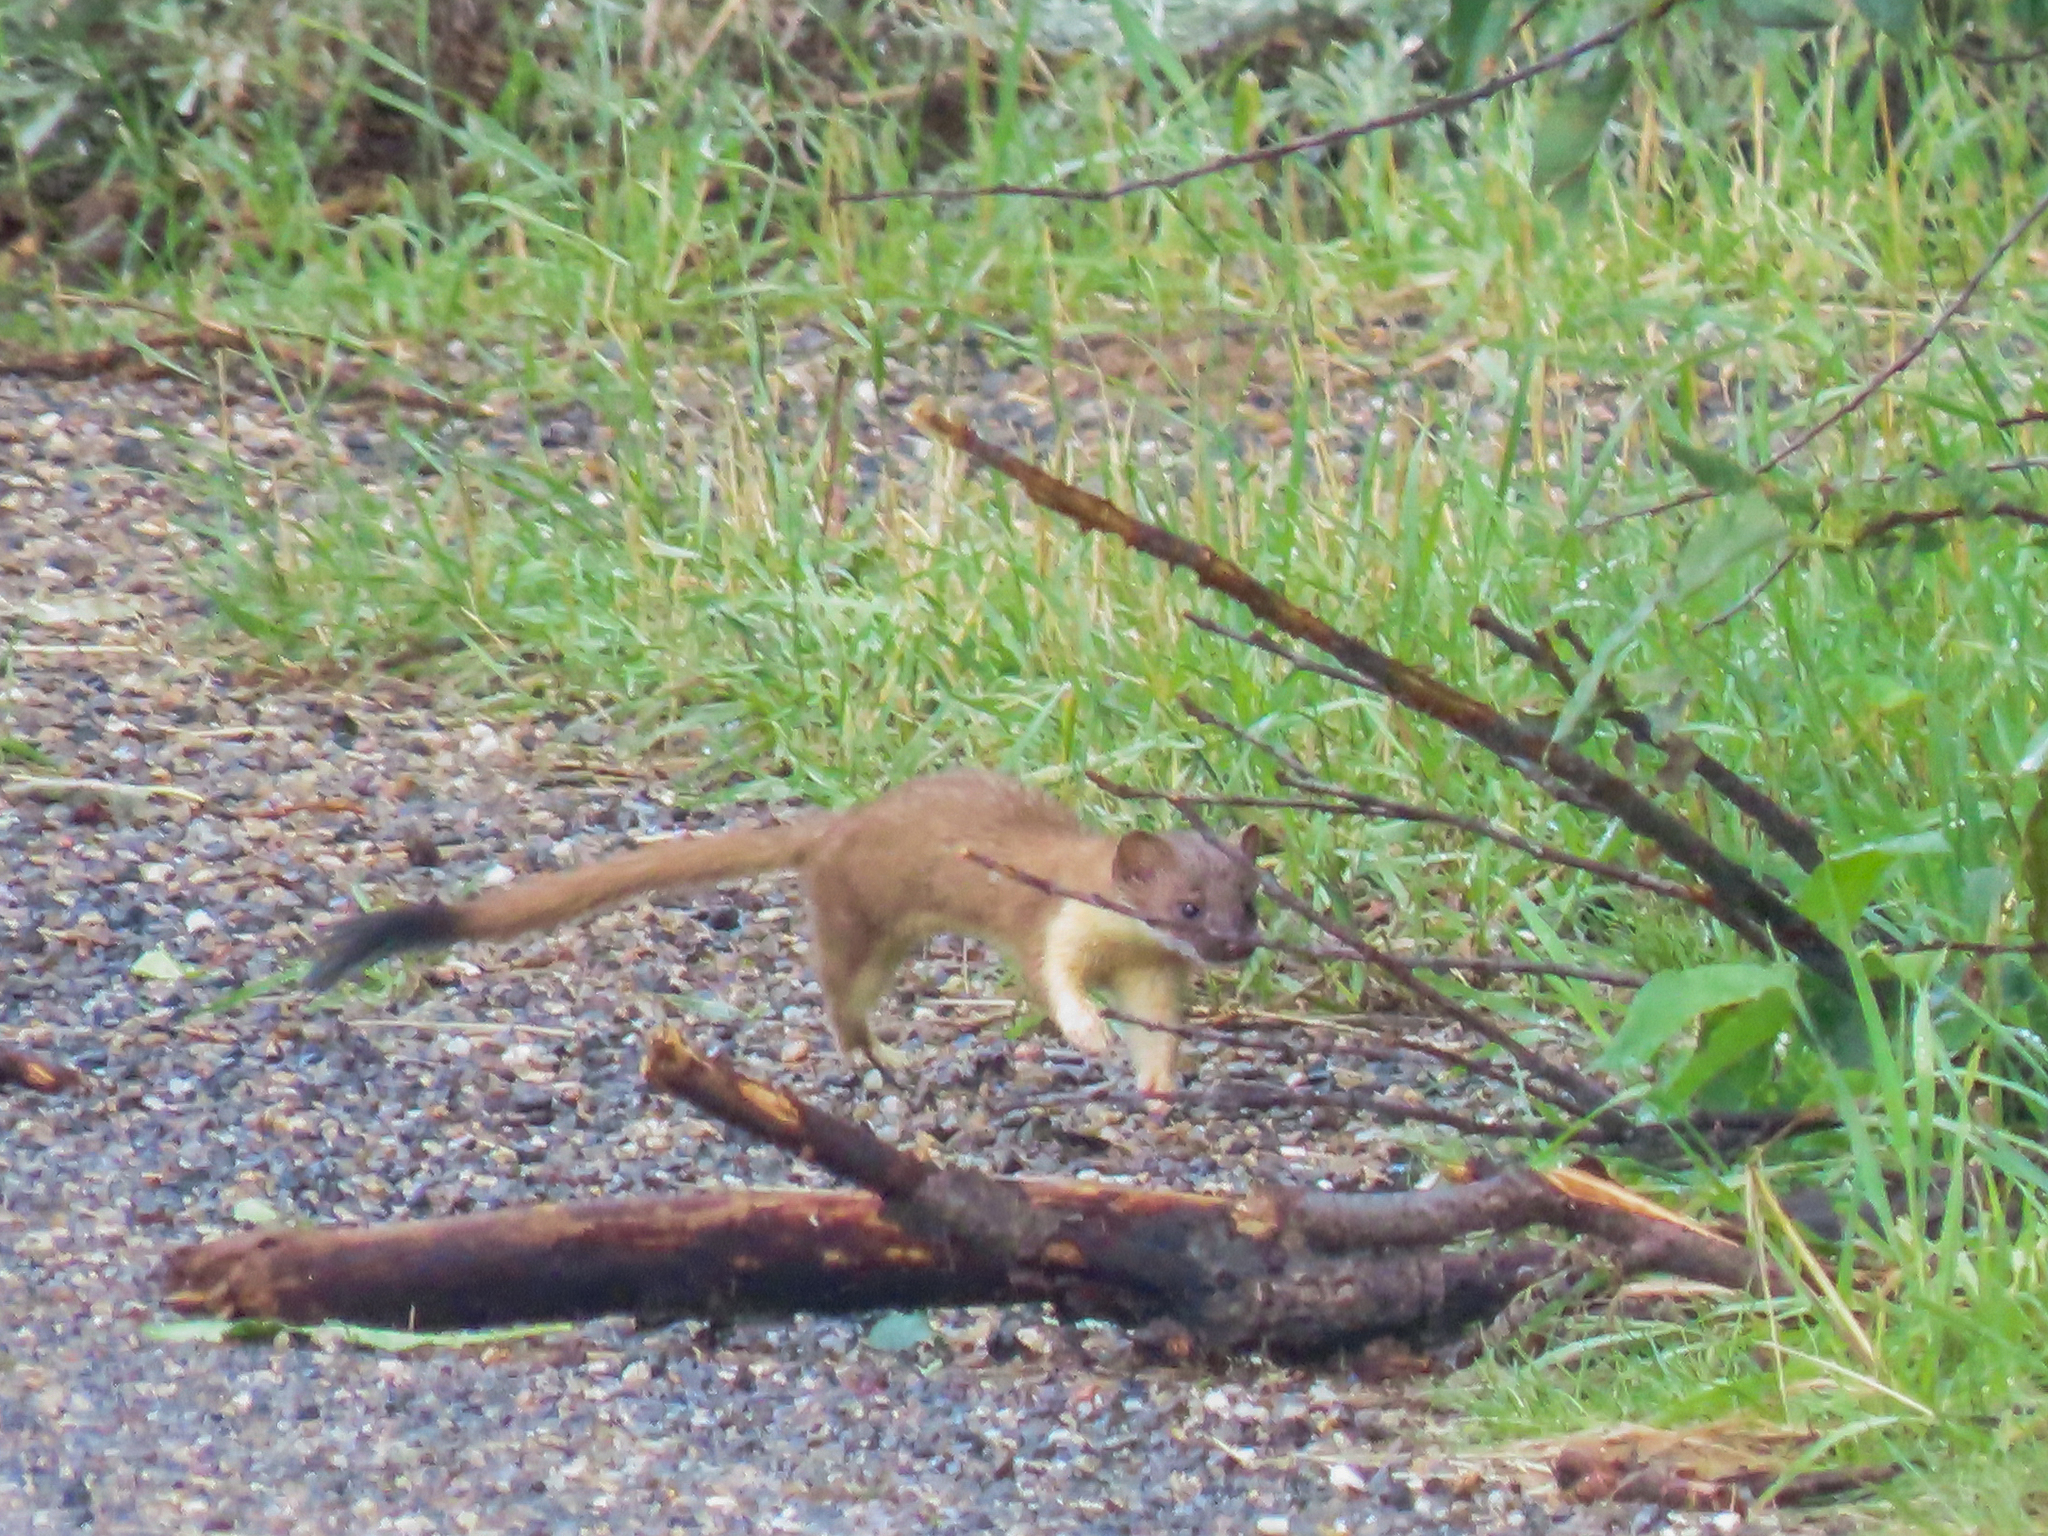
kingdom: Animalia
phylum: Chordata
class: Mammalia
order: Carnivora
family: Mustelidae
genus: Mustela
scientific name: Mustela
